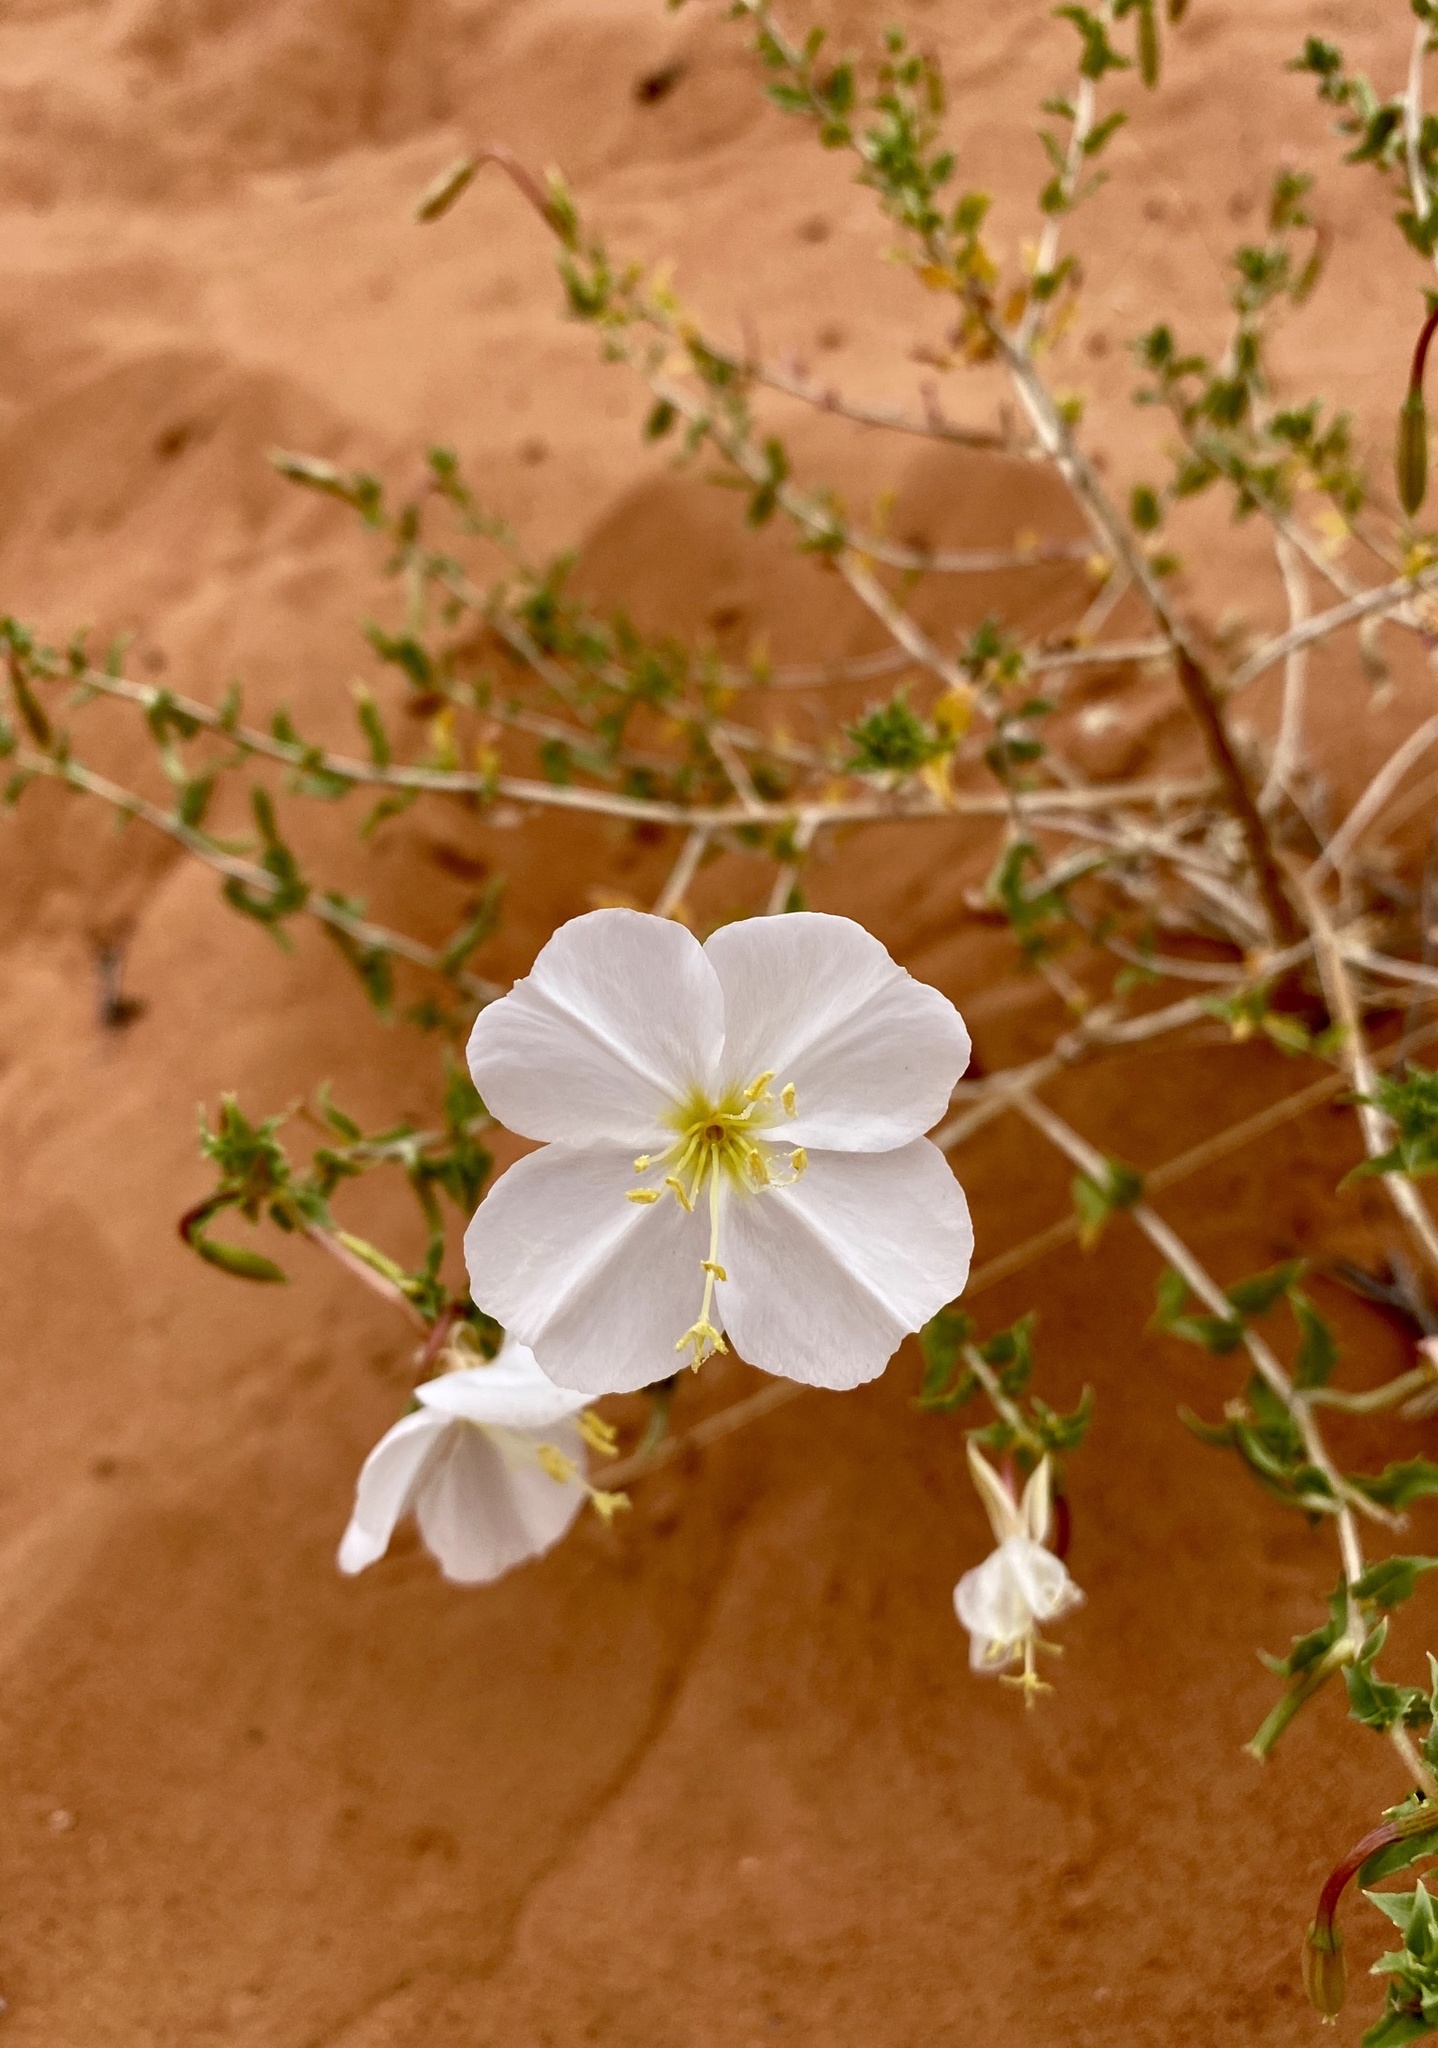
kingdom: Plantae
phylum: Tracheophyta
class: Magnoliopsida
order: Myrtales
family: Onagraceae
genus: Oenothera
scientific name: Oenothera pallida
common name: Pale evening-primrose
